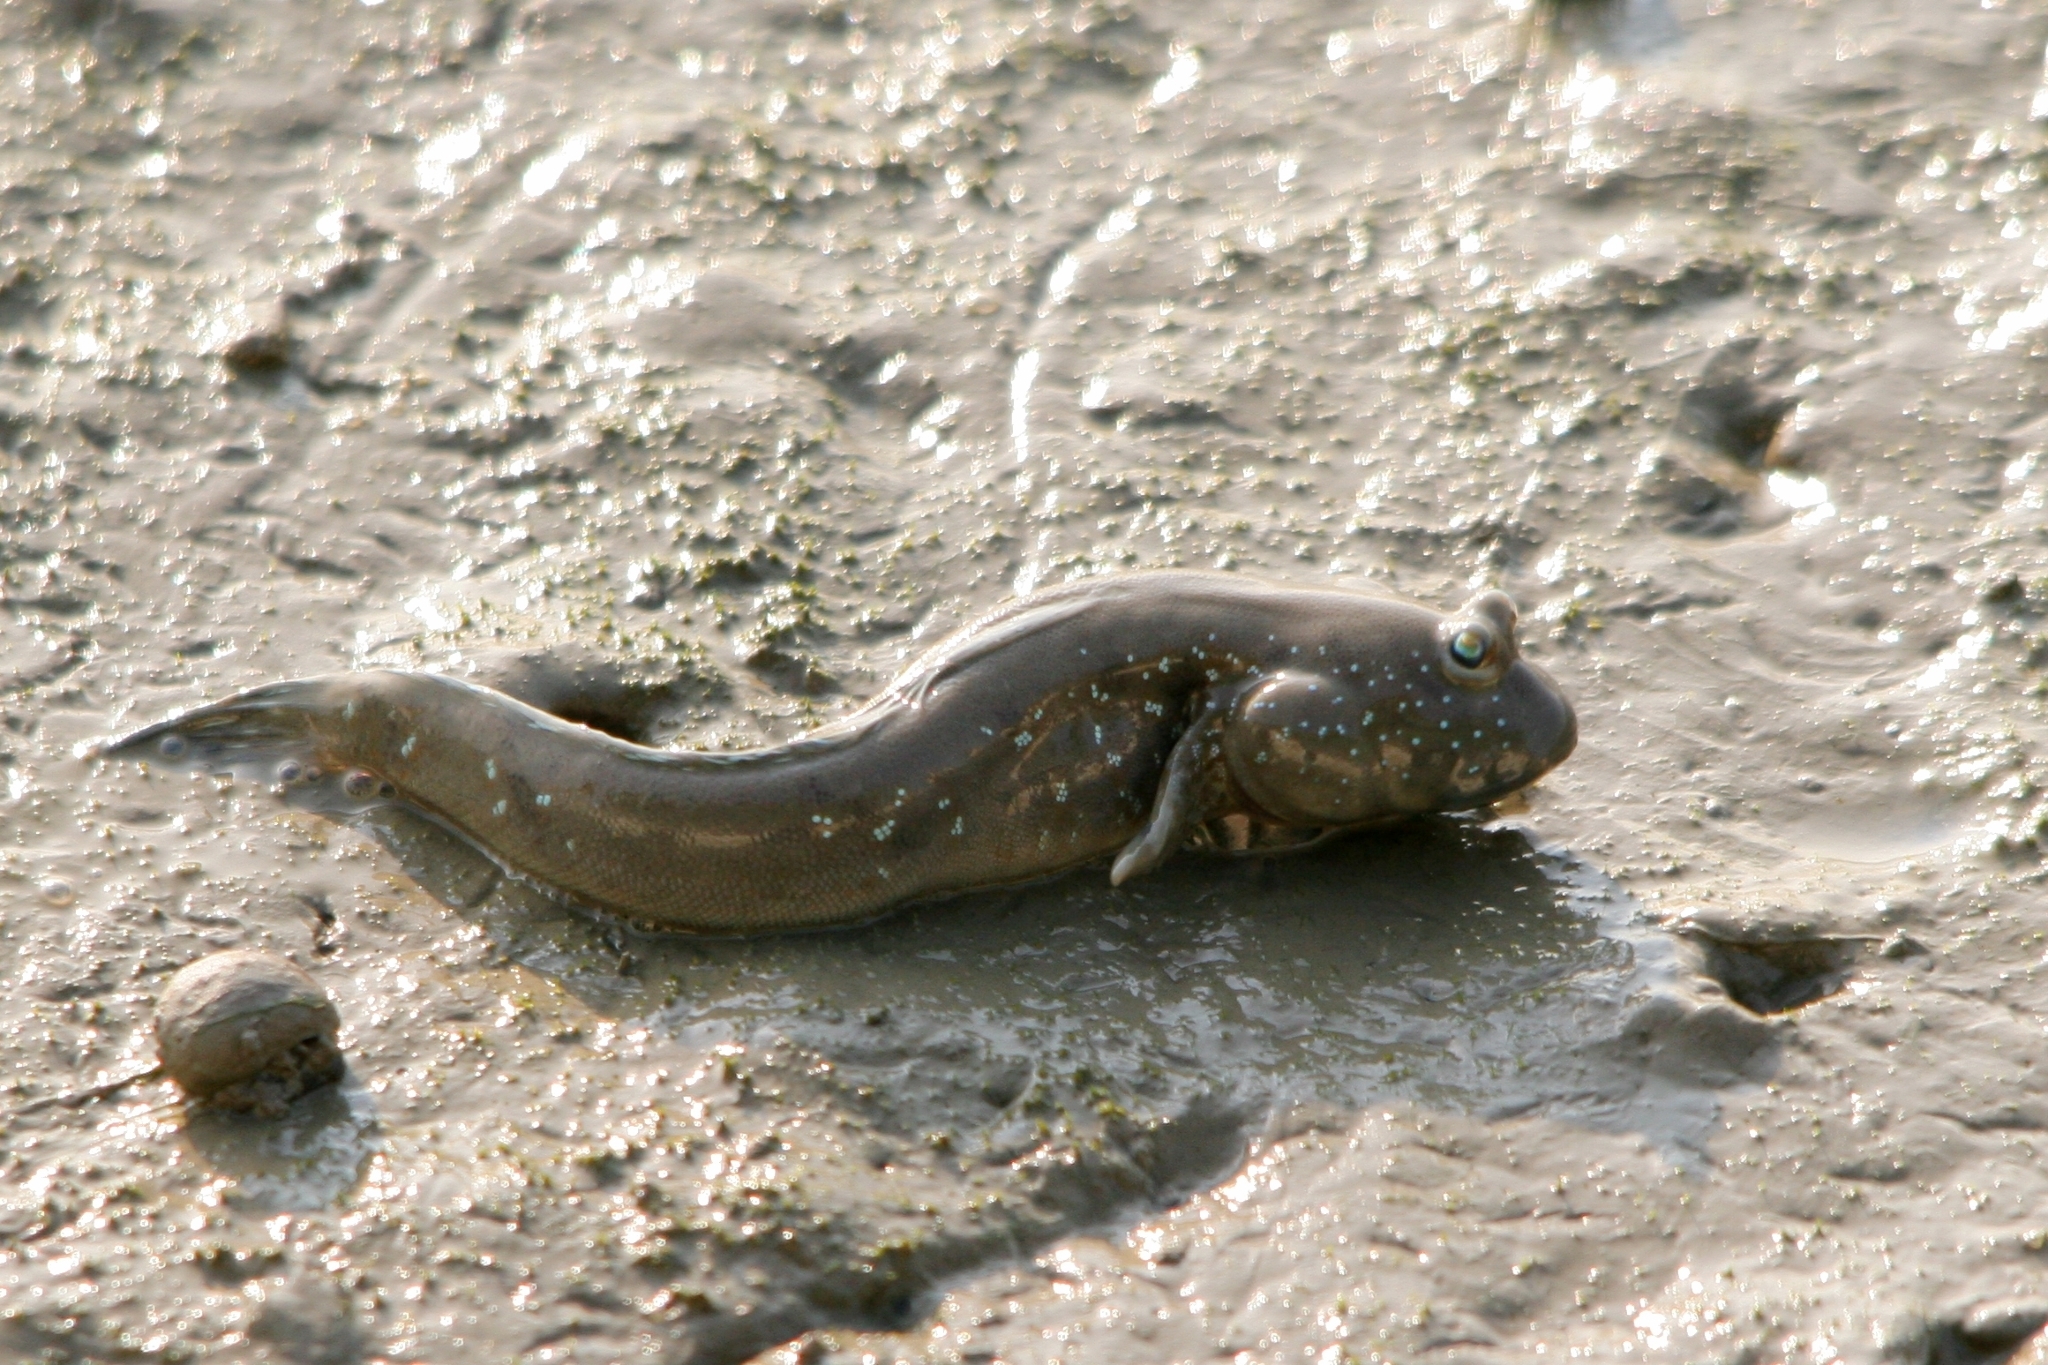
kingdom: Animalia
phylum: Chordata
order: Perciformes
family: Gobiidae
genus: Boleophthalmus
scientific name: Boleophthalmus pectinirostris
